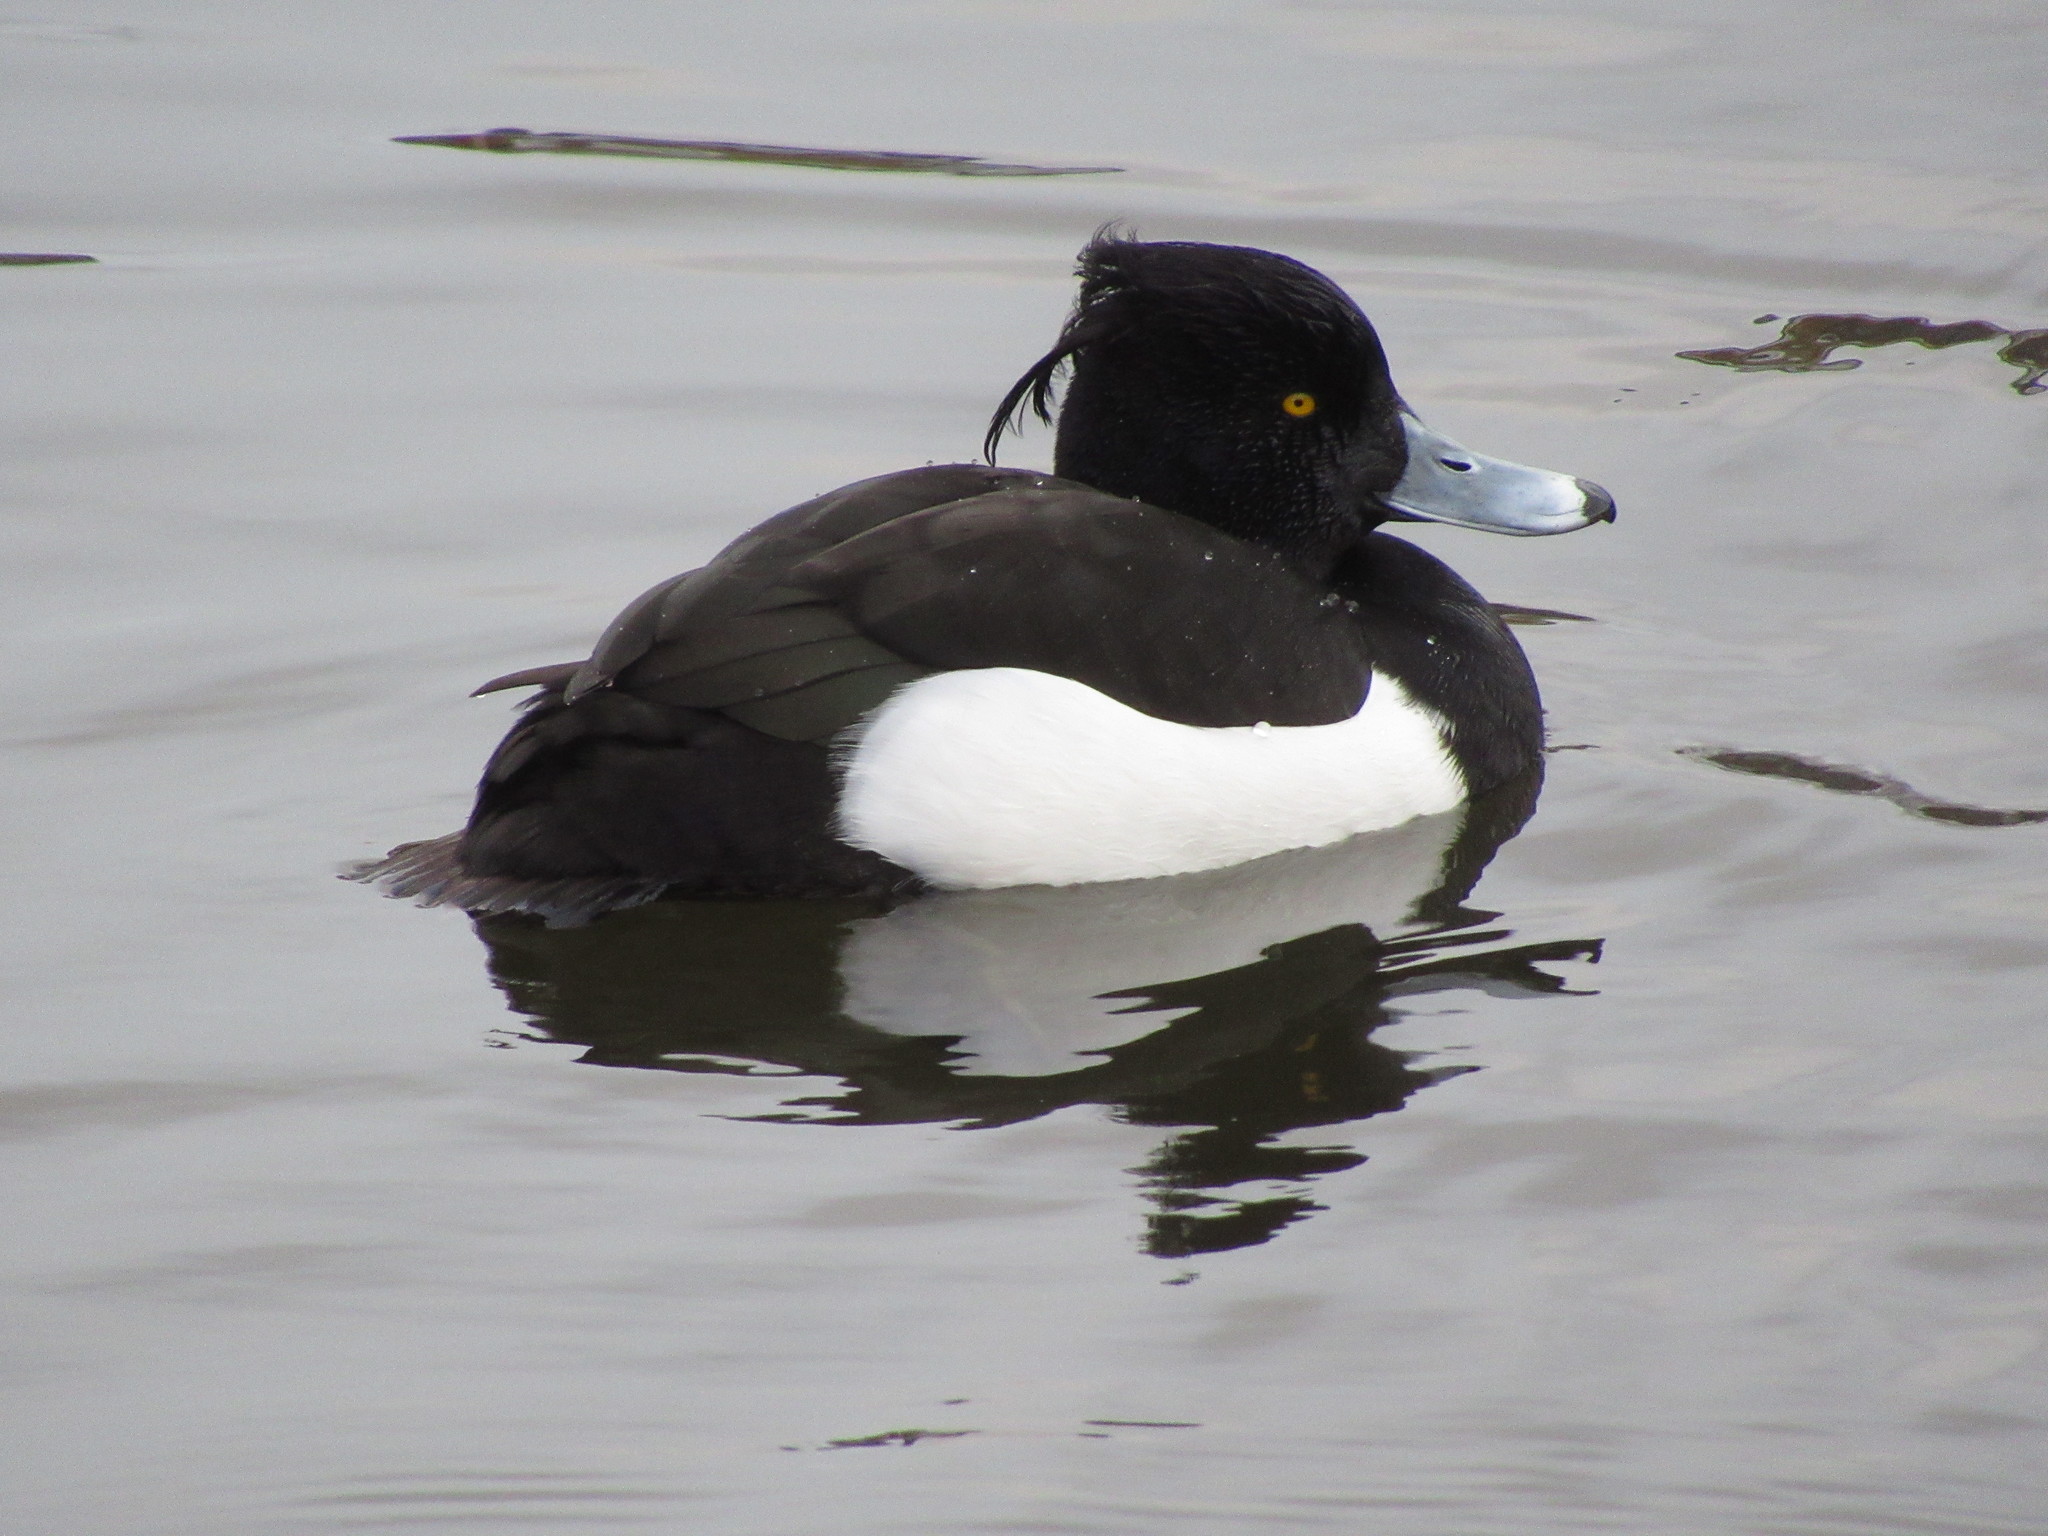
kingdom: Animalia
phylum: Chordata
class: Aves
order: Anseriformes
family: Anatidae
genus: Aythya
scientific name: Aythya fuligula
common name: Tufted duck
